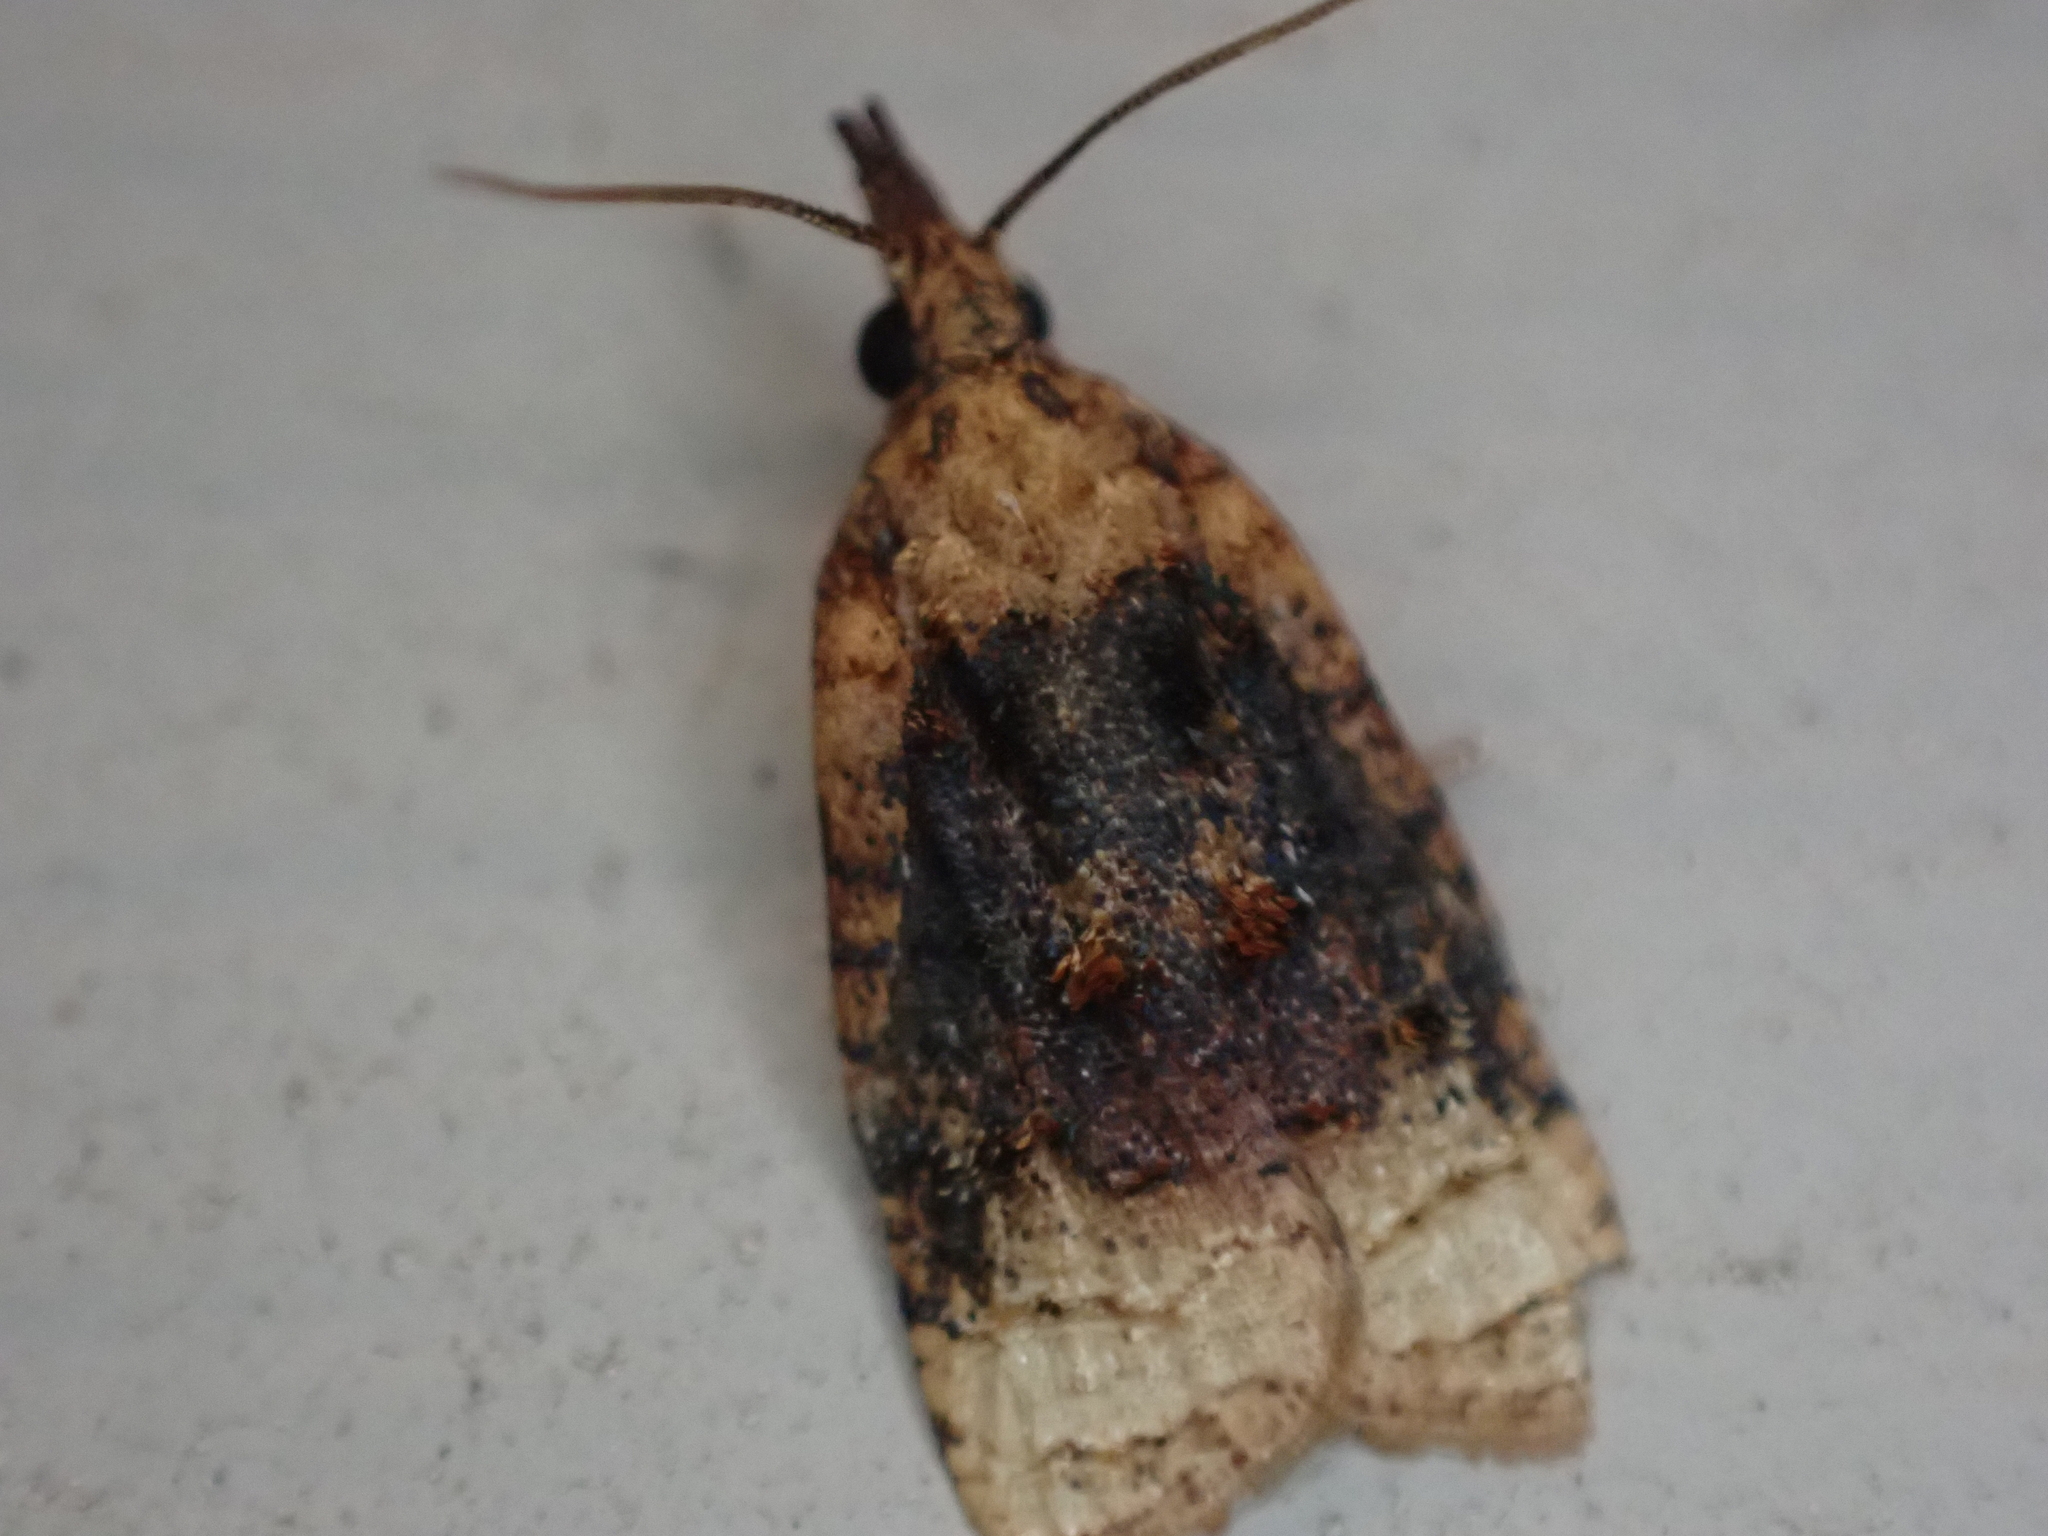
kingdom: Animalia
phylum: Arthropoda
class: Insecta
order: Lepidoptera
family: Tortricidae
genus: Platynota
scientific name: Platynota flavedana
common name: Black-shaded platynota moth
